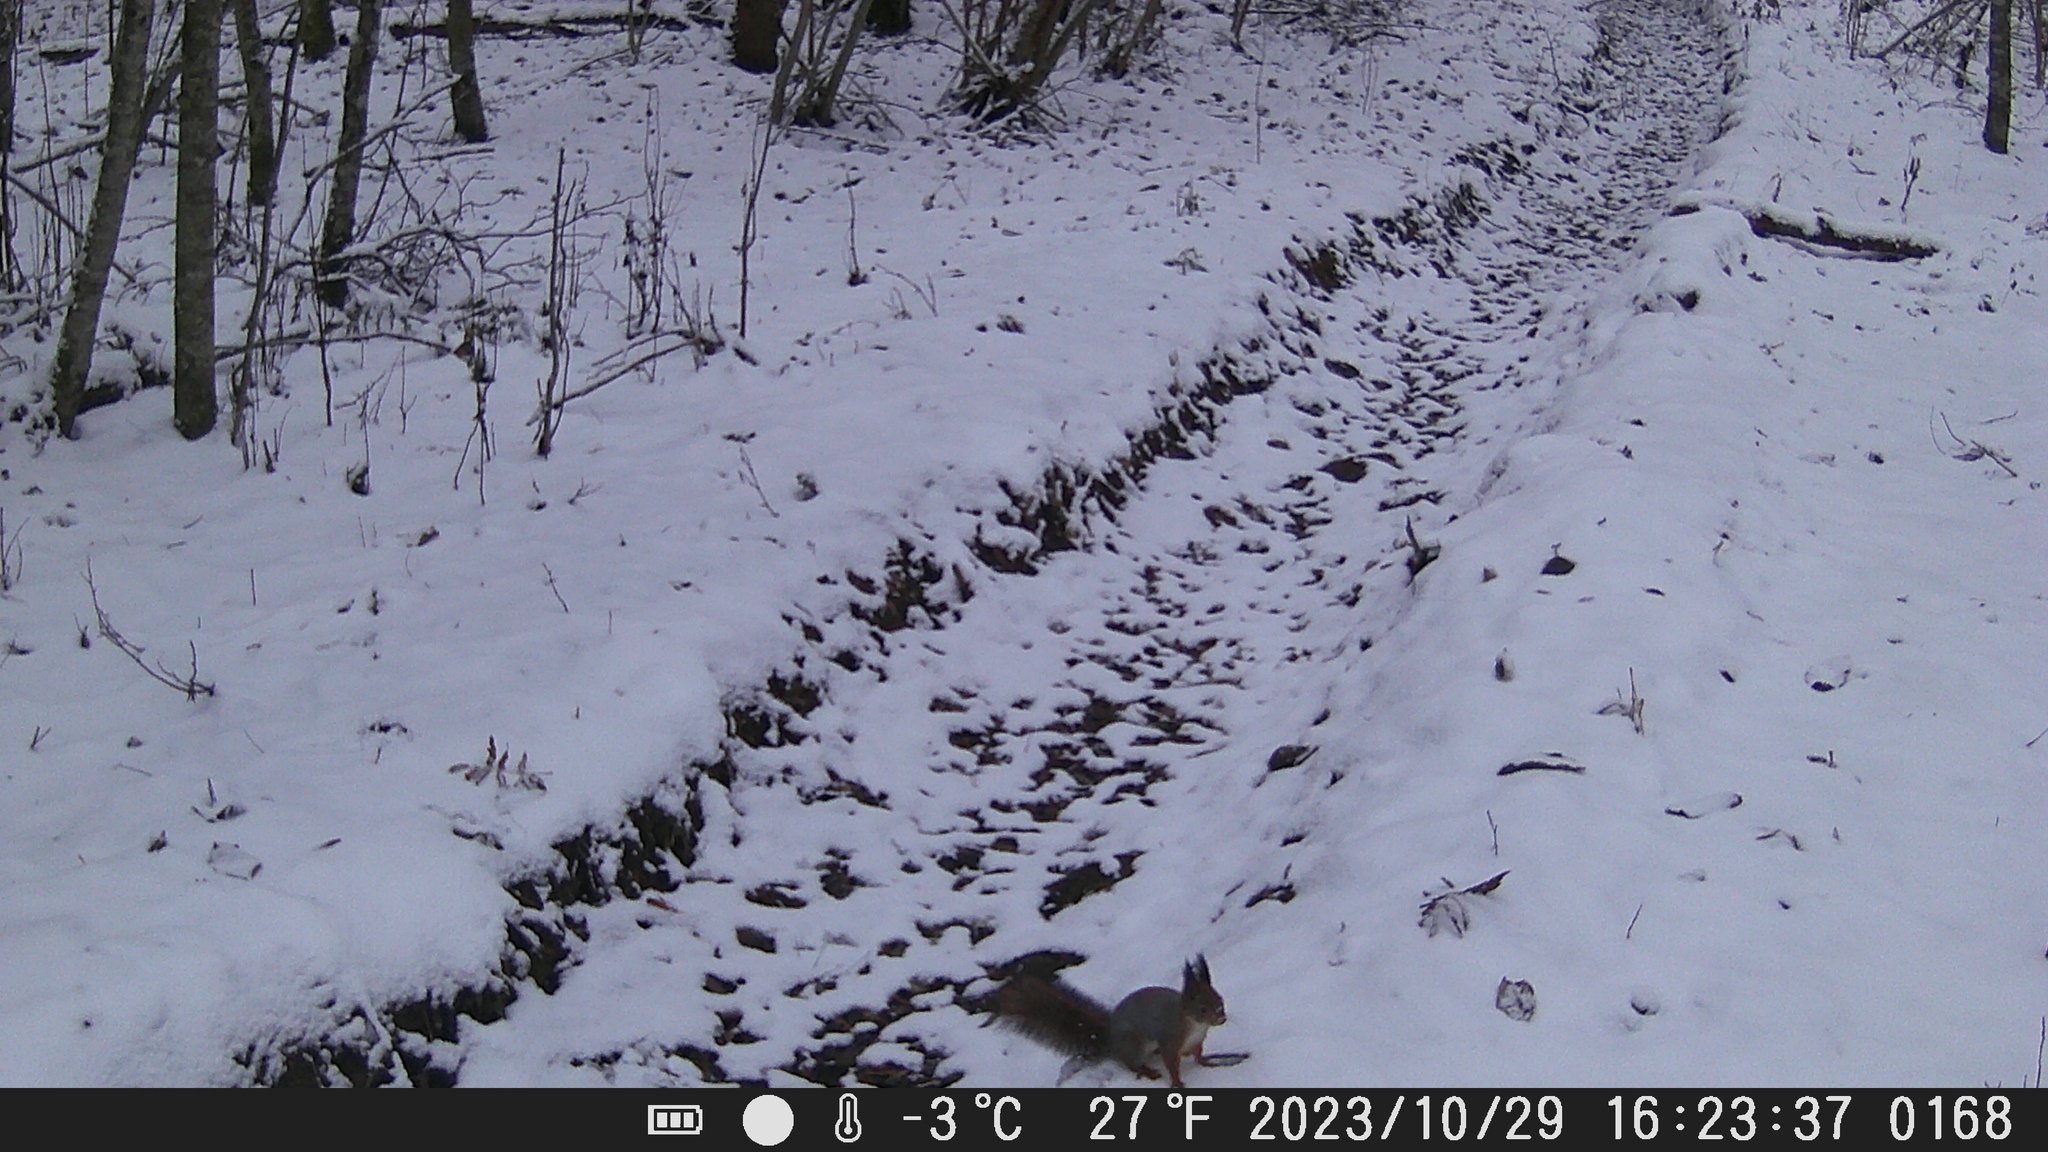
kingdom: Animalia
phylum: Chordata
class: Mammalia
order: Rodentia
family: Sciuridae
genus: Sciurus
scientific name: Sciurus vulgaris
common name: Eurasian red squirrel
